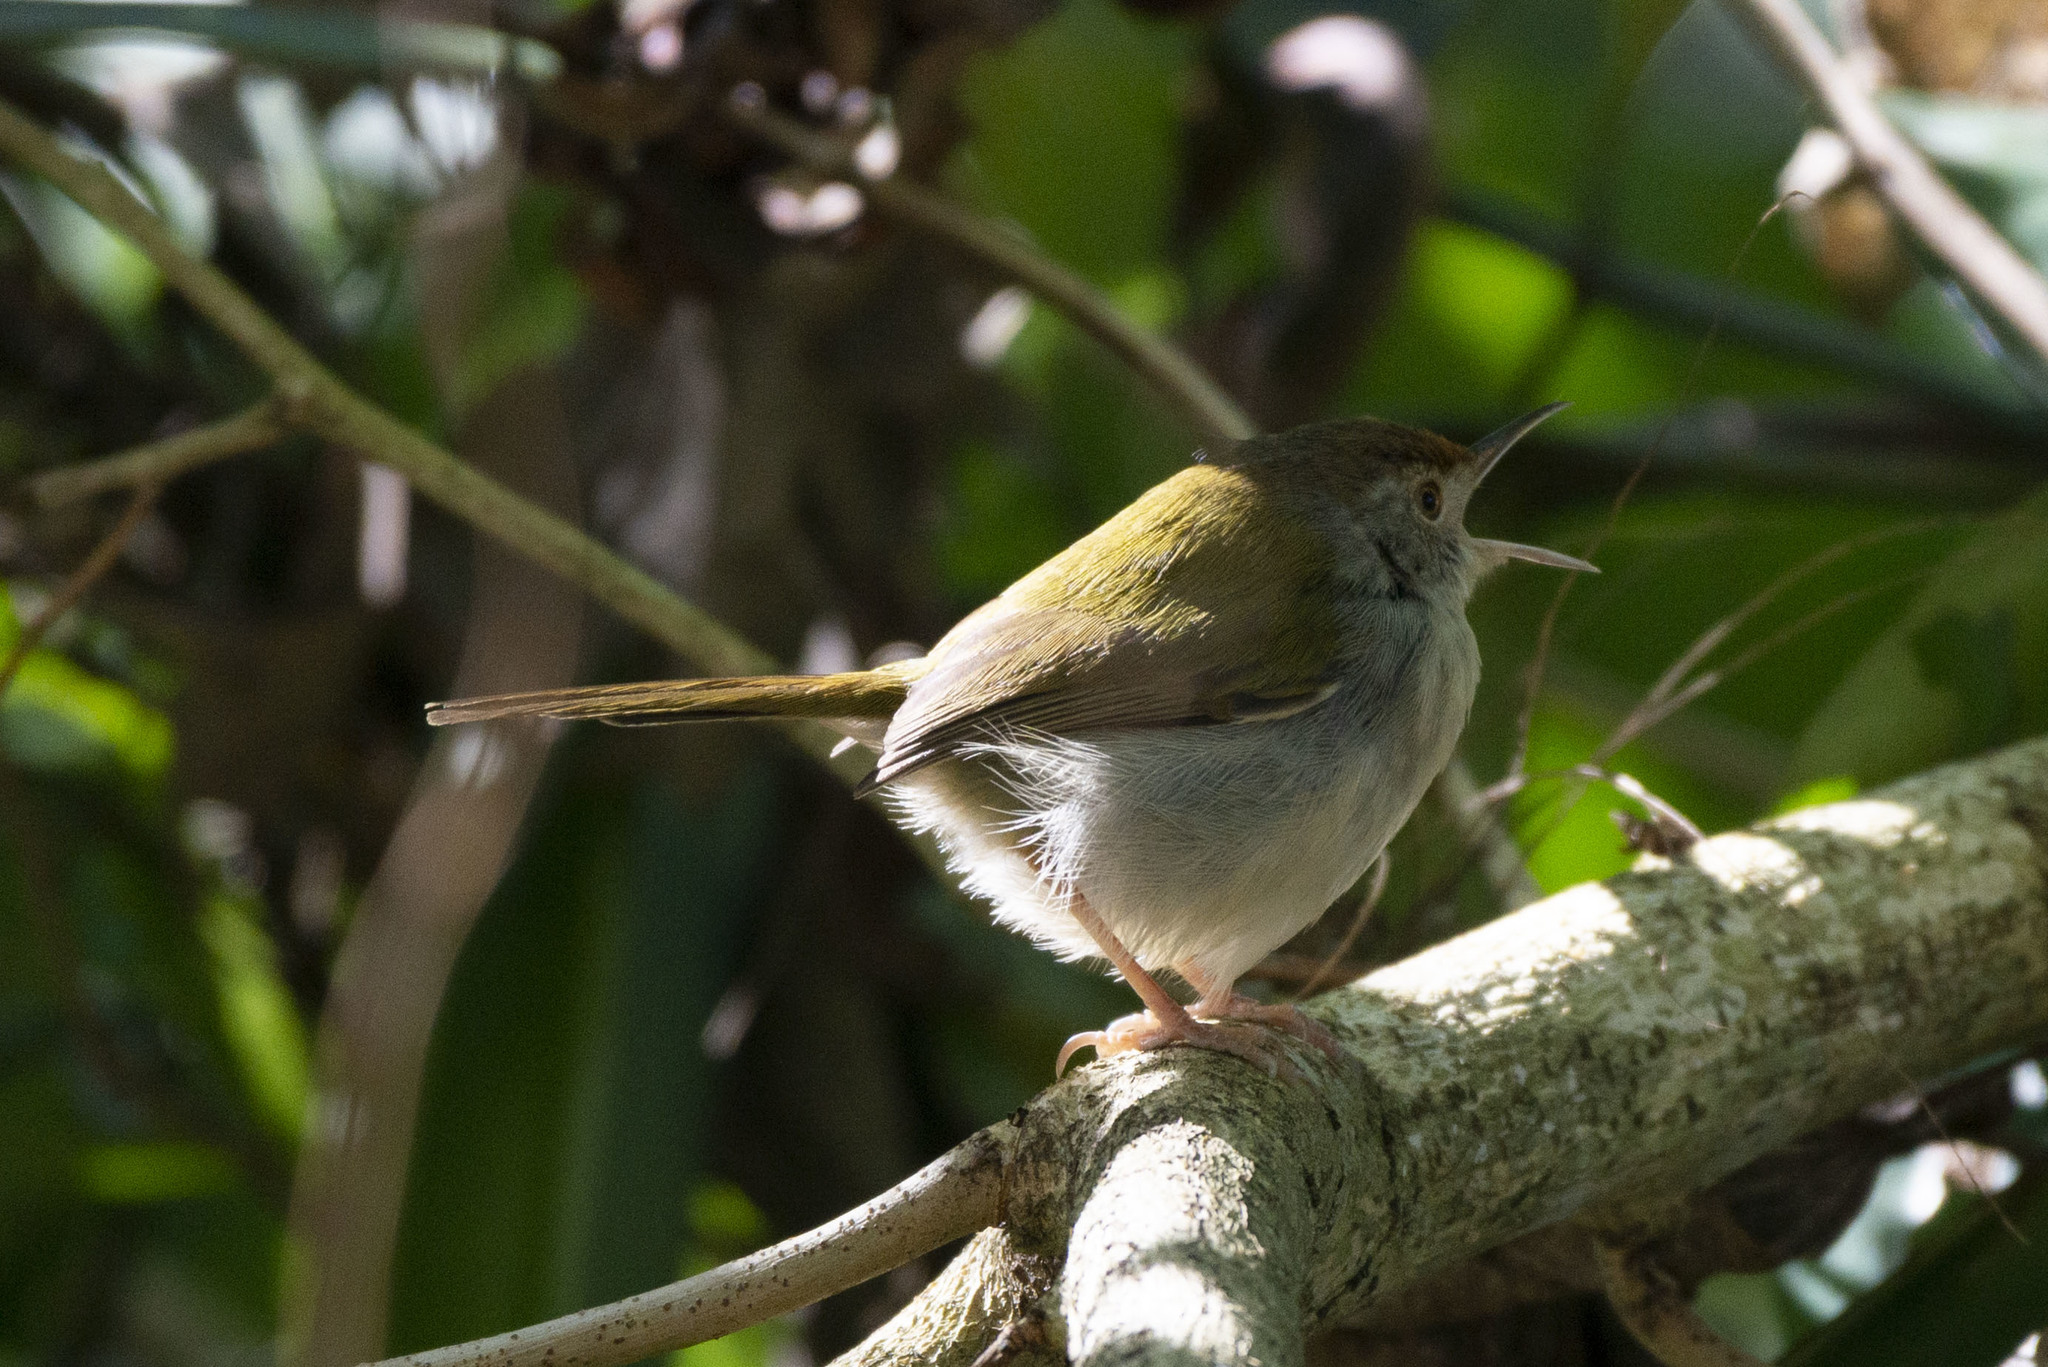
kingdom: Animalia
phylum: Chordata
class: Aves
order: Passeriformes
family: Cisticolidae
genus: Orthotomus
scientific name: Orthotomus sutorius
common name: Common tailorbird
